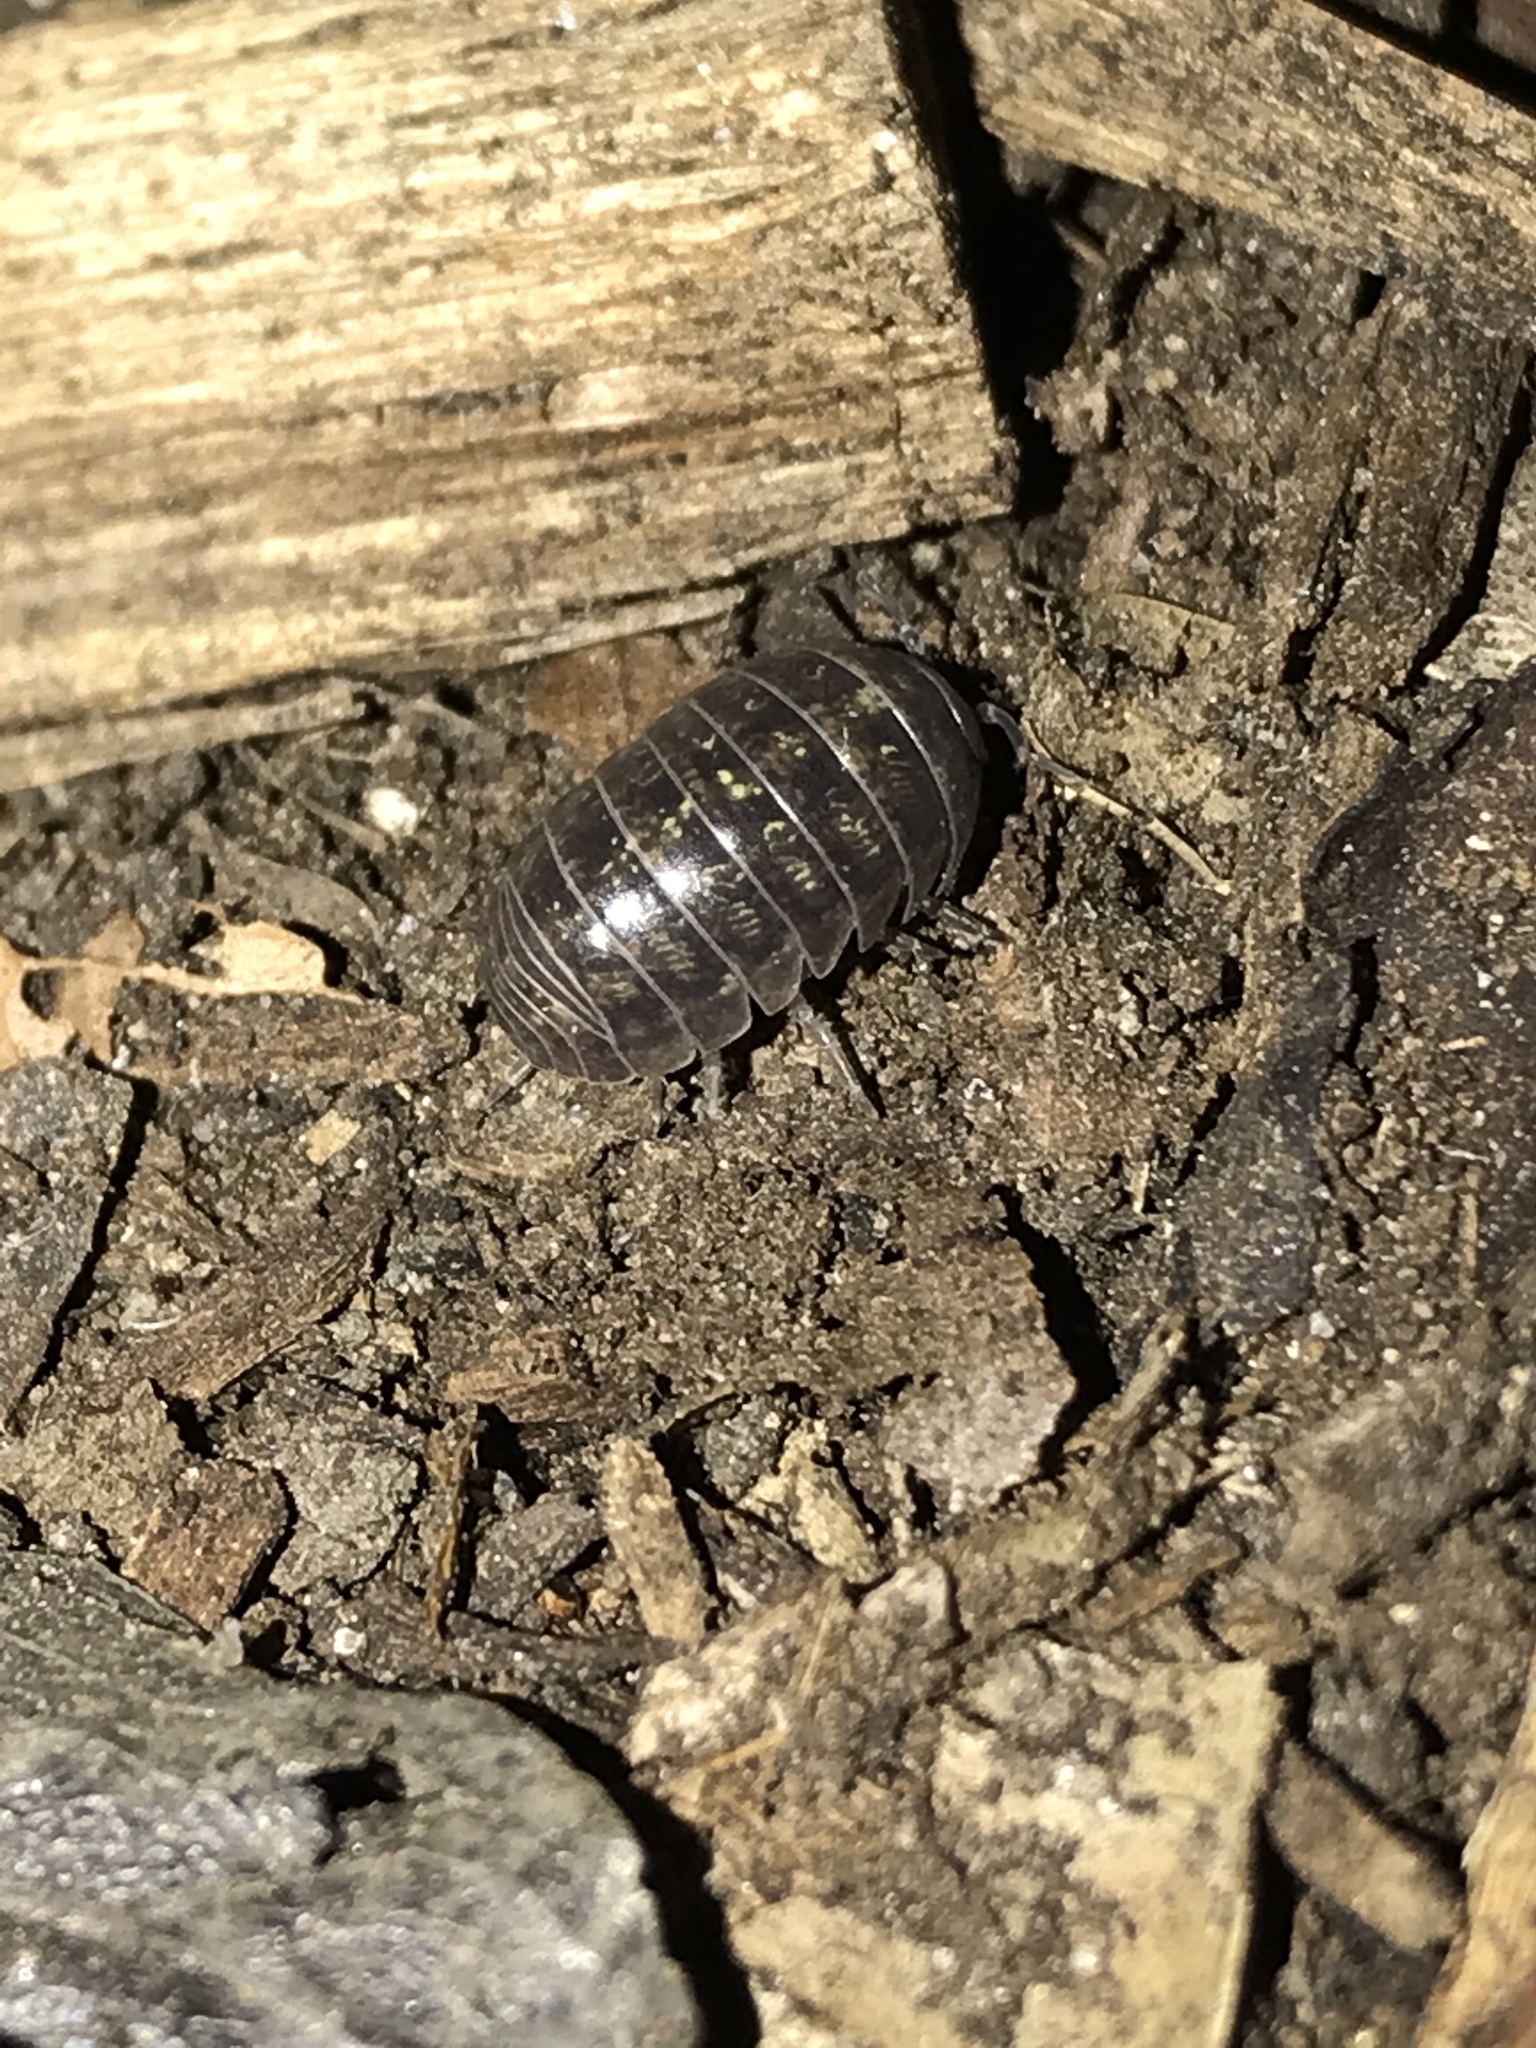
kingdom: Animalia
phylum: Arthropoda
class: Malacostraca
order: Isopoda
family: Armadillidiidae
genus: Armadillidium
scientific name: Armadillidium vulgare
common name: Common pill woodlouse
